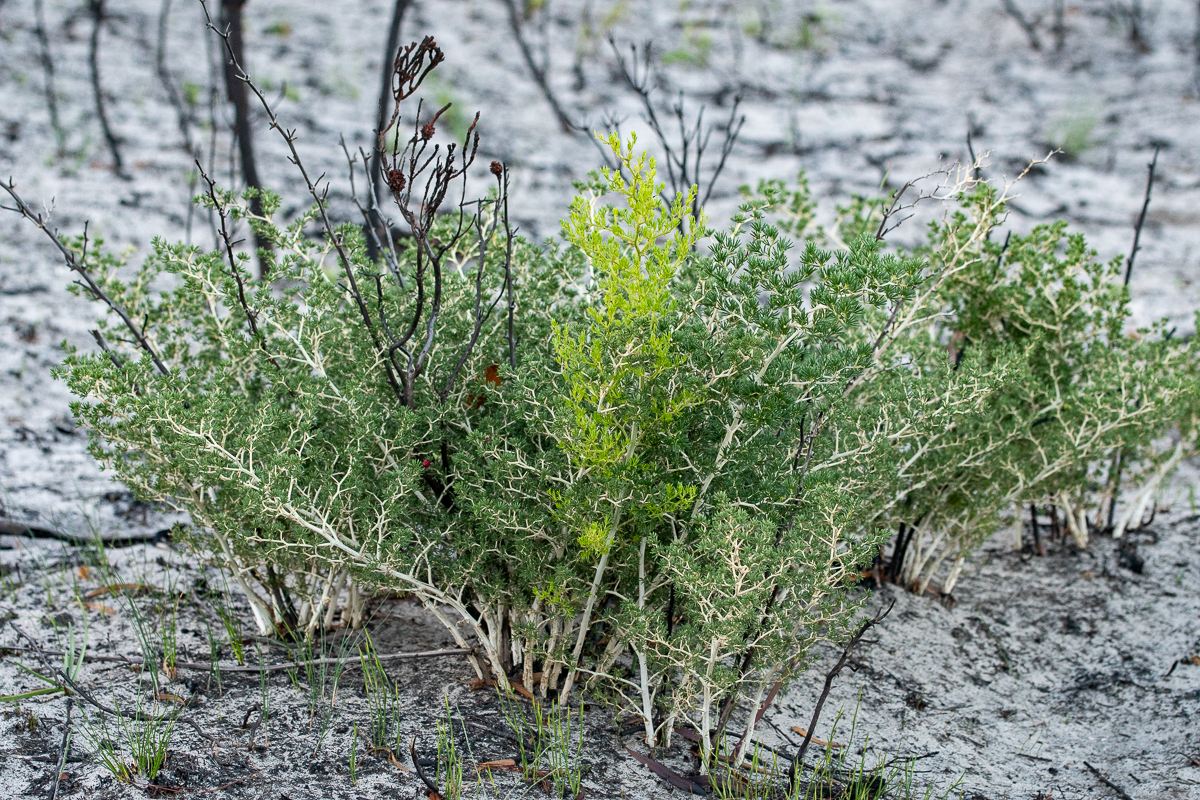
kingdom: Plantae
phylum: Tracheophyta
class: Liliopsida
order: Asparagales
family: Asparagaceae
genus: Asparagus
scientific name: Asparagus lignosus
